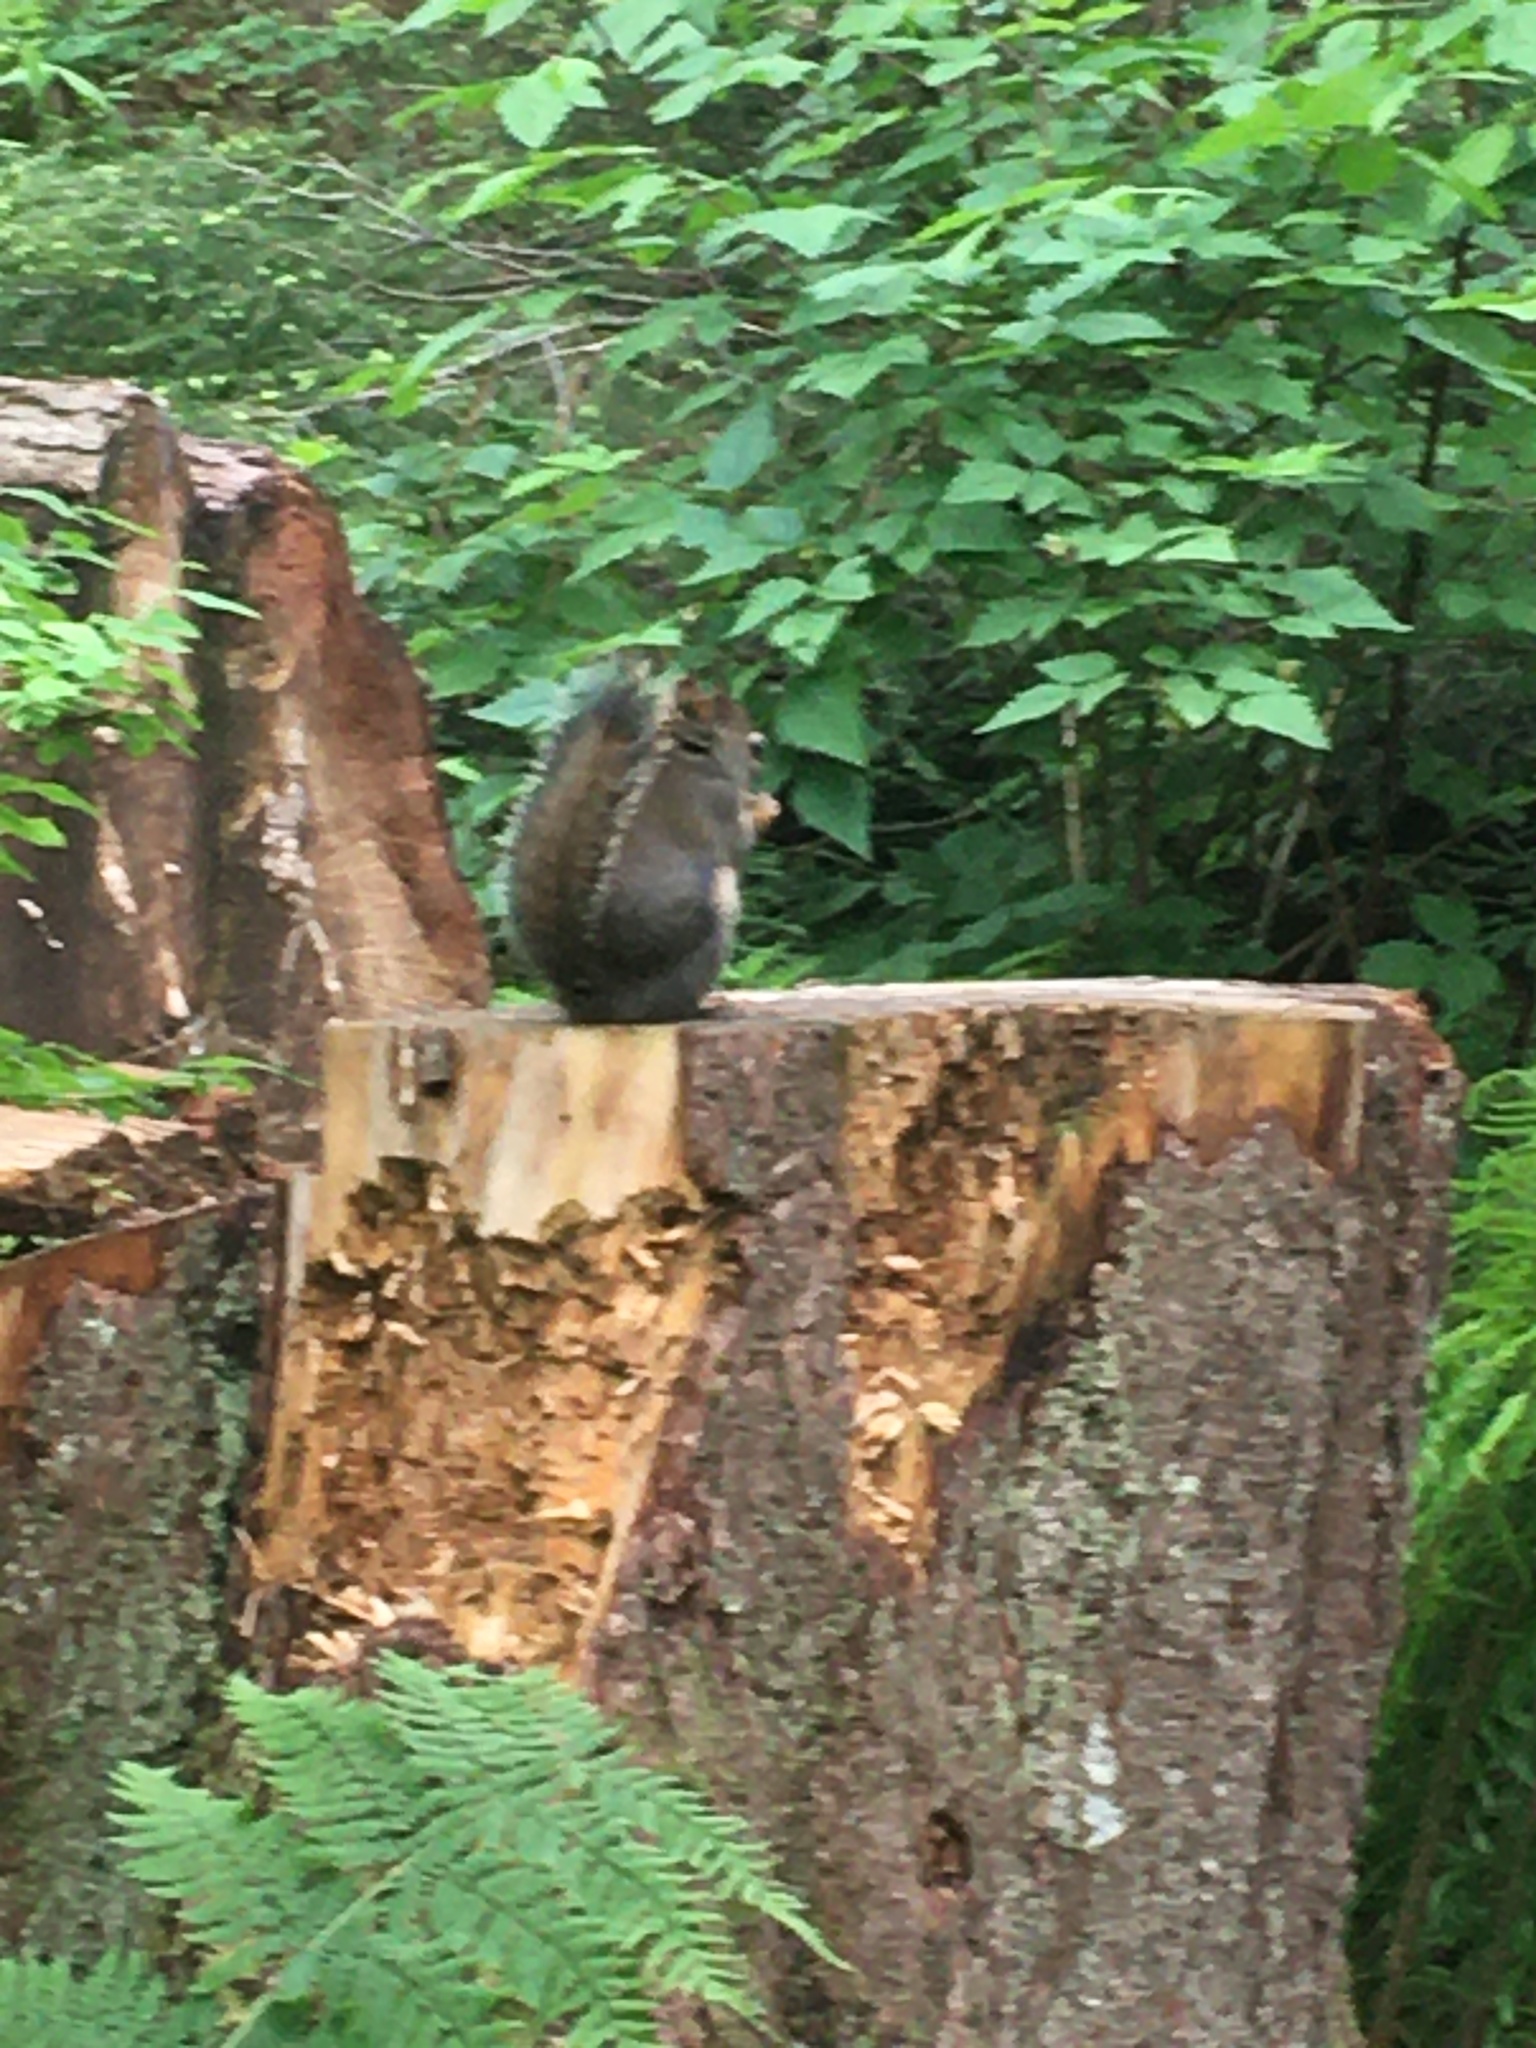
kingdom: Animalia
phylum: Chordata
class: Mammalia
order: Rodentia
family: Sciuridae
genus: Tamiasciurus
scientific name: Tamiasciurus douglasii
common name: Douglas's squirrel
